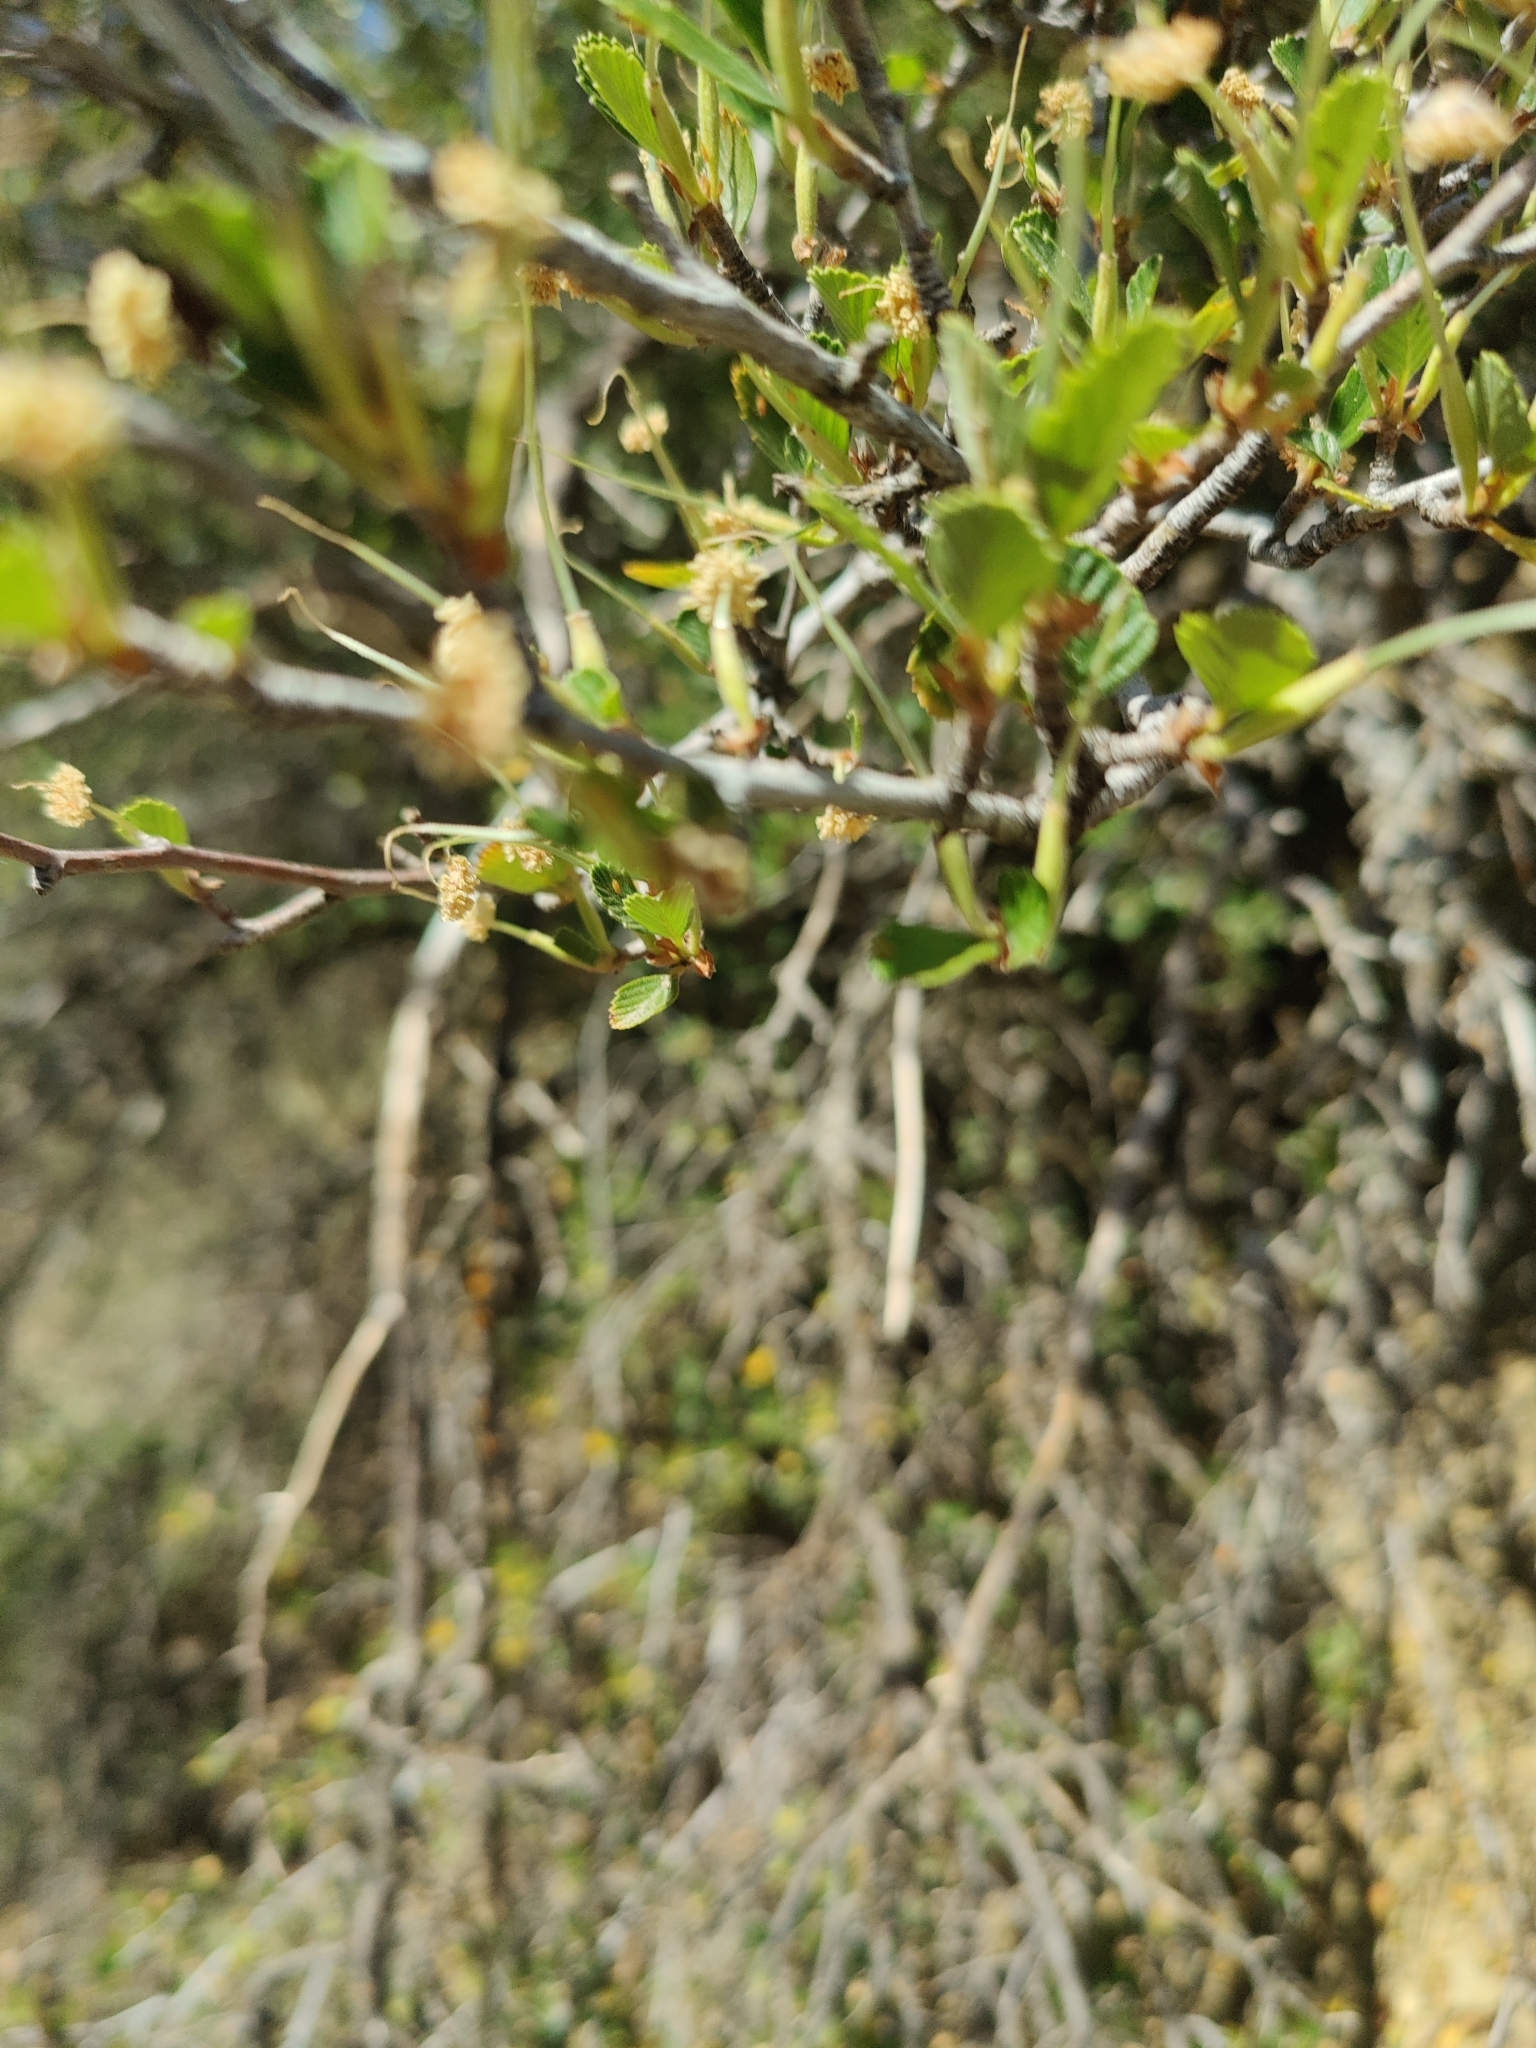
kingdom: Plantae
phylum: Tracheophyta
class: Magnoliopsida
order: Rosales
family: Rosaceae
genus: Cercocarpus
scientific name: Cercocarpus betuloides
